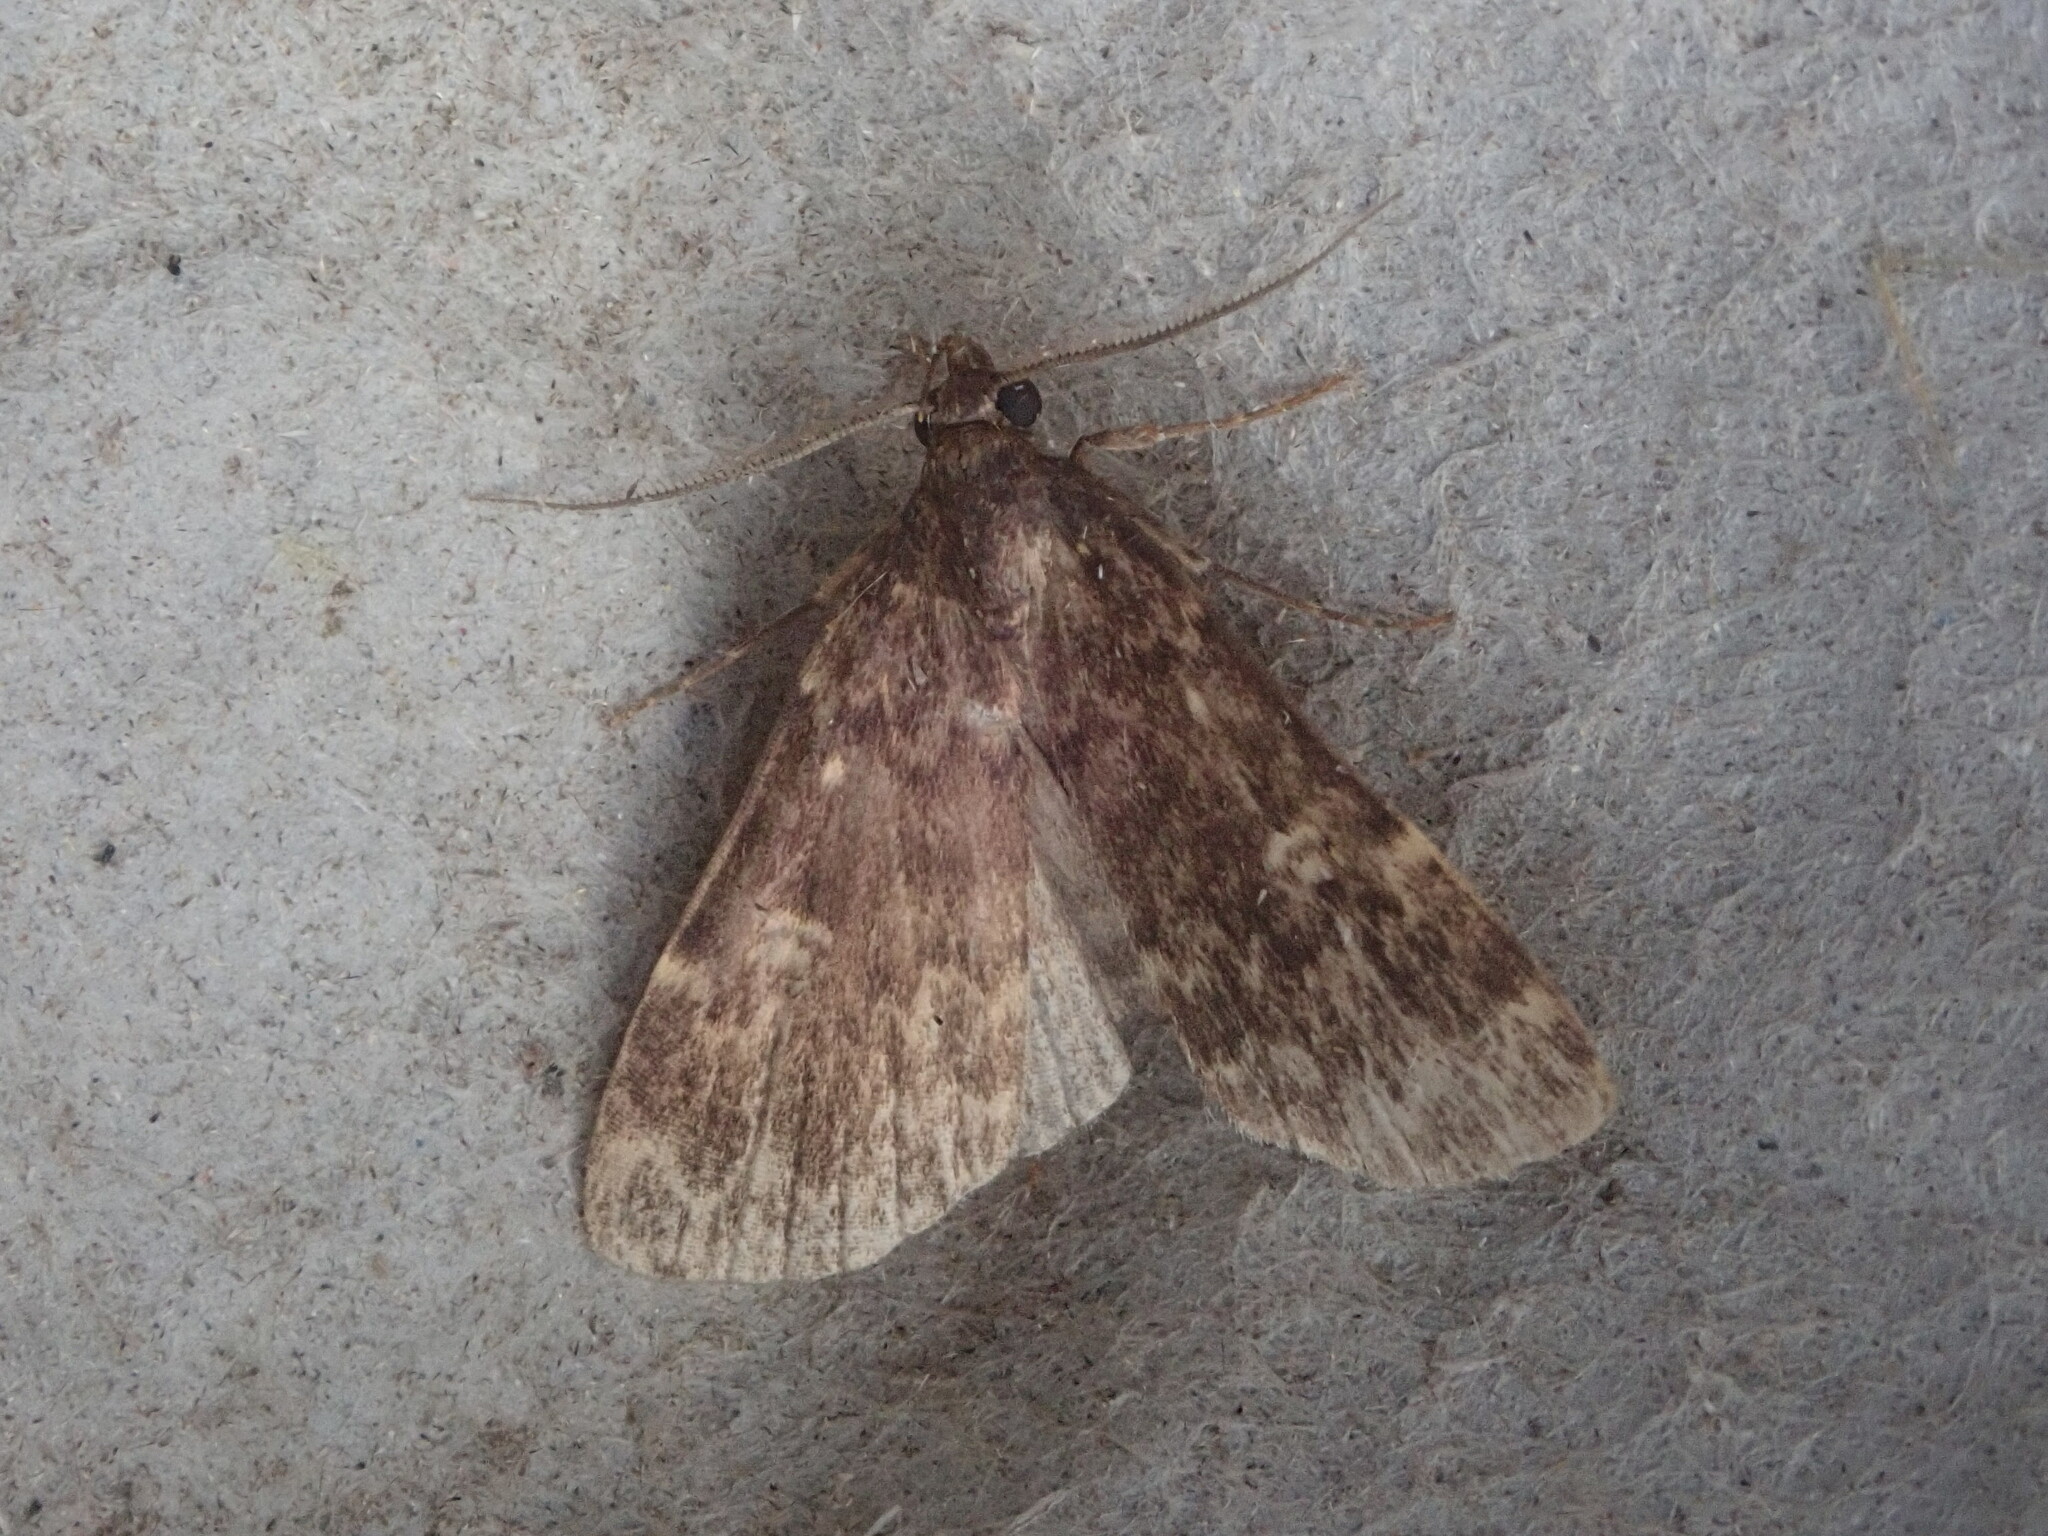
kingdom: Animalia
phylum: Arthropoda
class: Insecta
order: Lepidoptera
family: Erebidae
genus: Idia
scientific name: Idia lubricalis
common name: Twin-striped tabby
